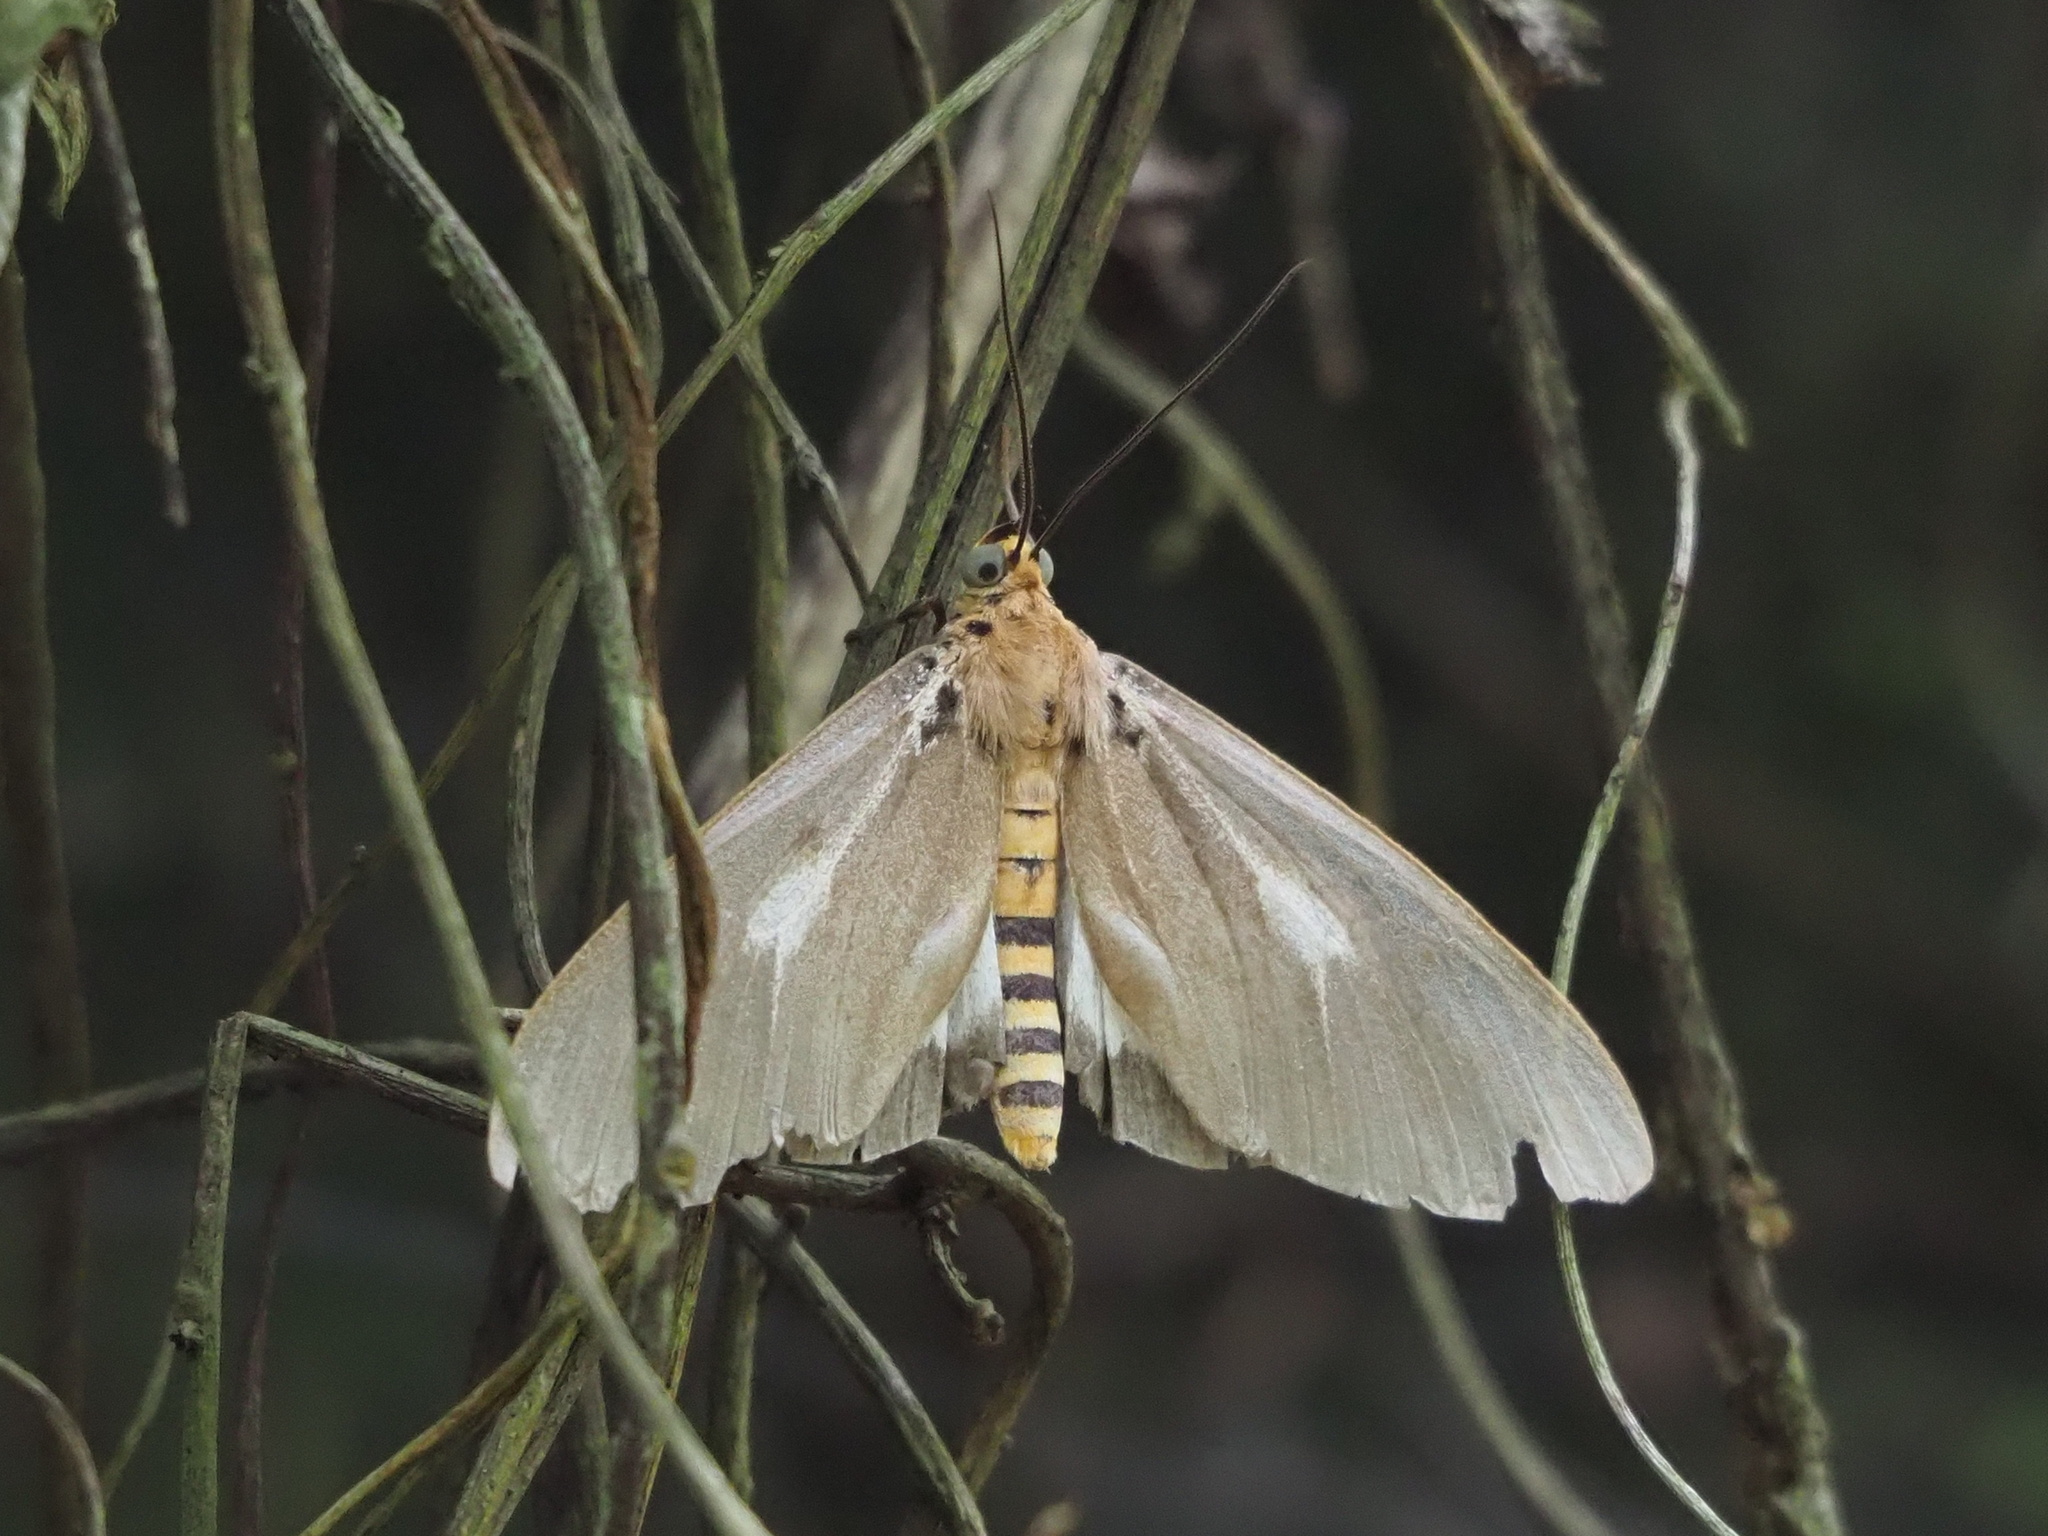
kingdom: Animalia
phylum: Arthropoda
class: Insecta
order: Lepidoptera
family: Erebidae
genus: Asota
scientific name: Asota heliconia
